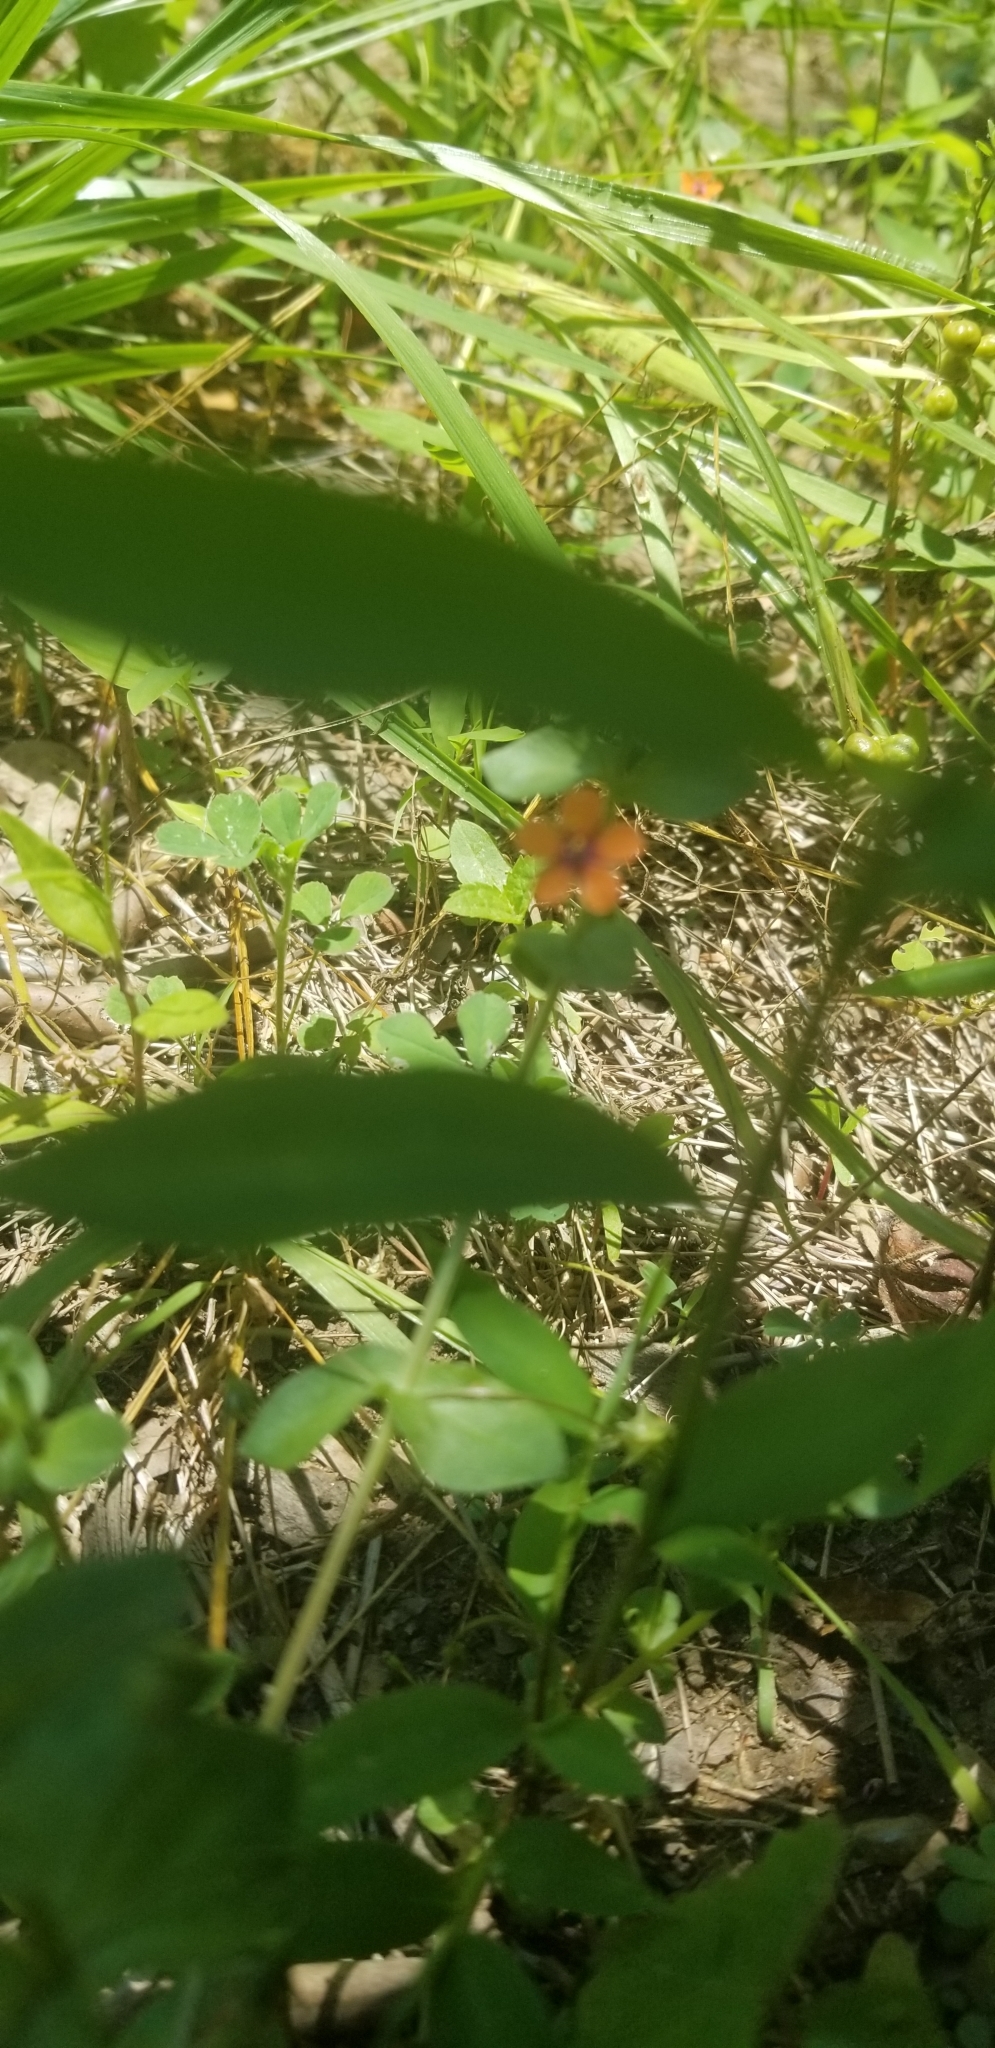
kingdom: Plantae
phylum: Tracheophyta
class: Magnoliopsida
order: Ericales
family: Primulaceae
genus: Lysimachia
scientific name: Lysimachia arvensis
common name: Scarlet pimpernel
